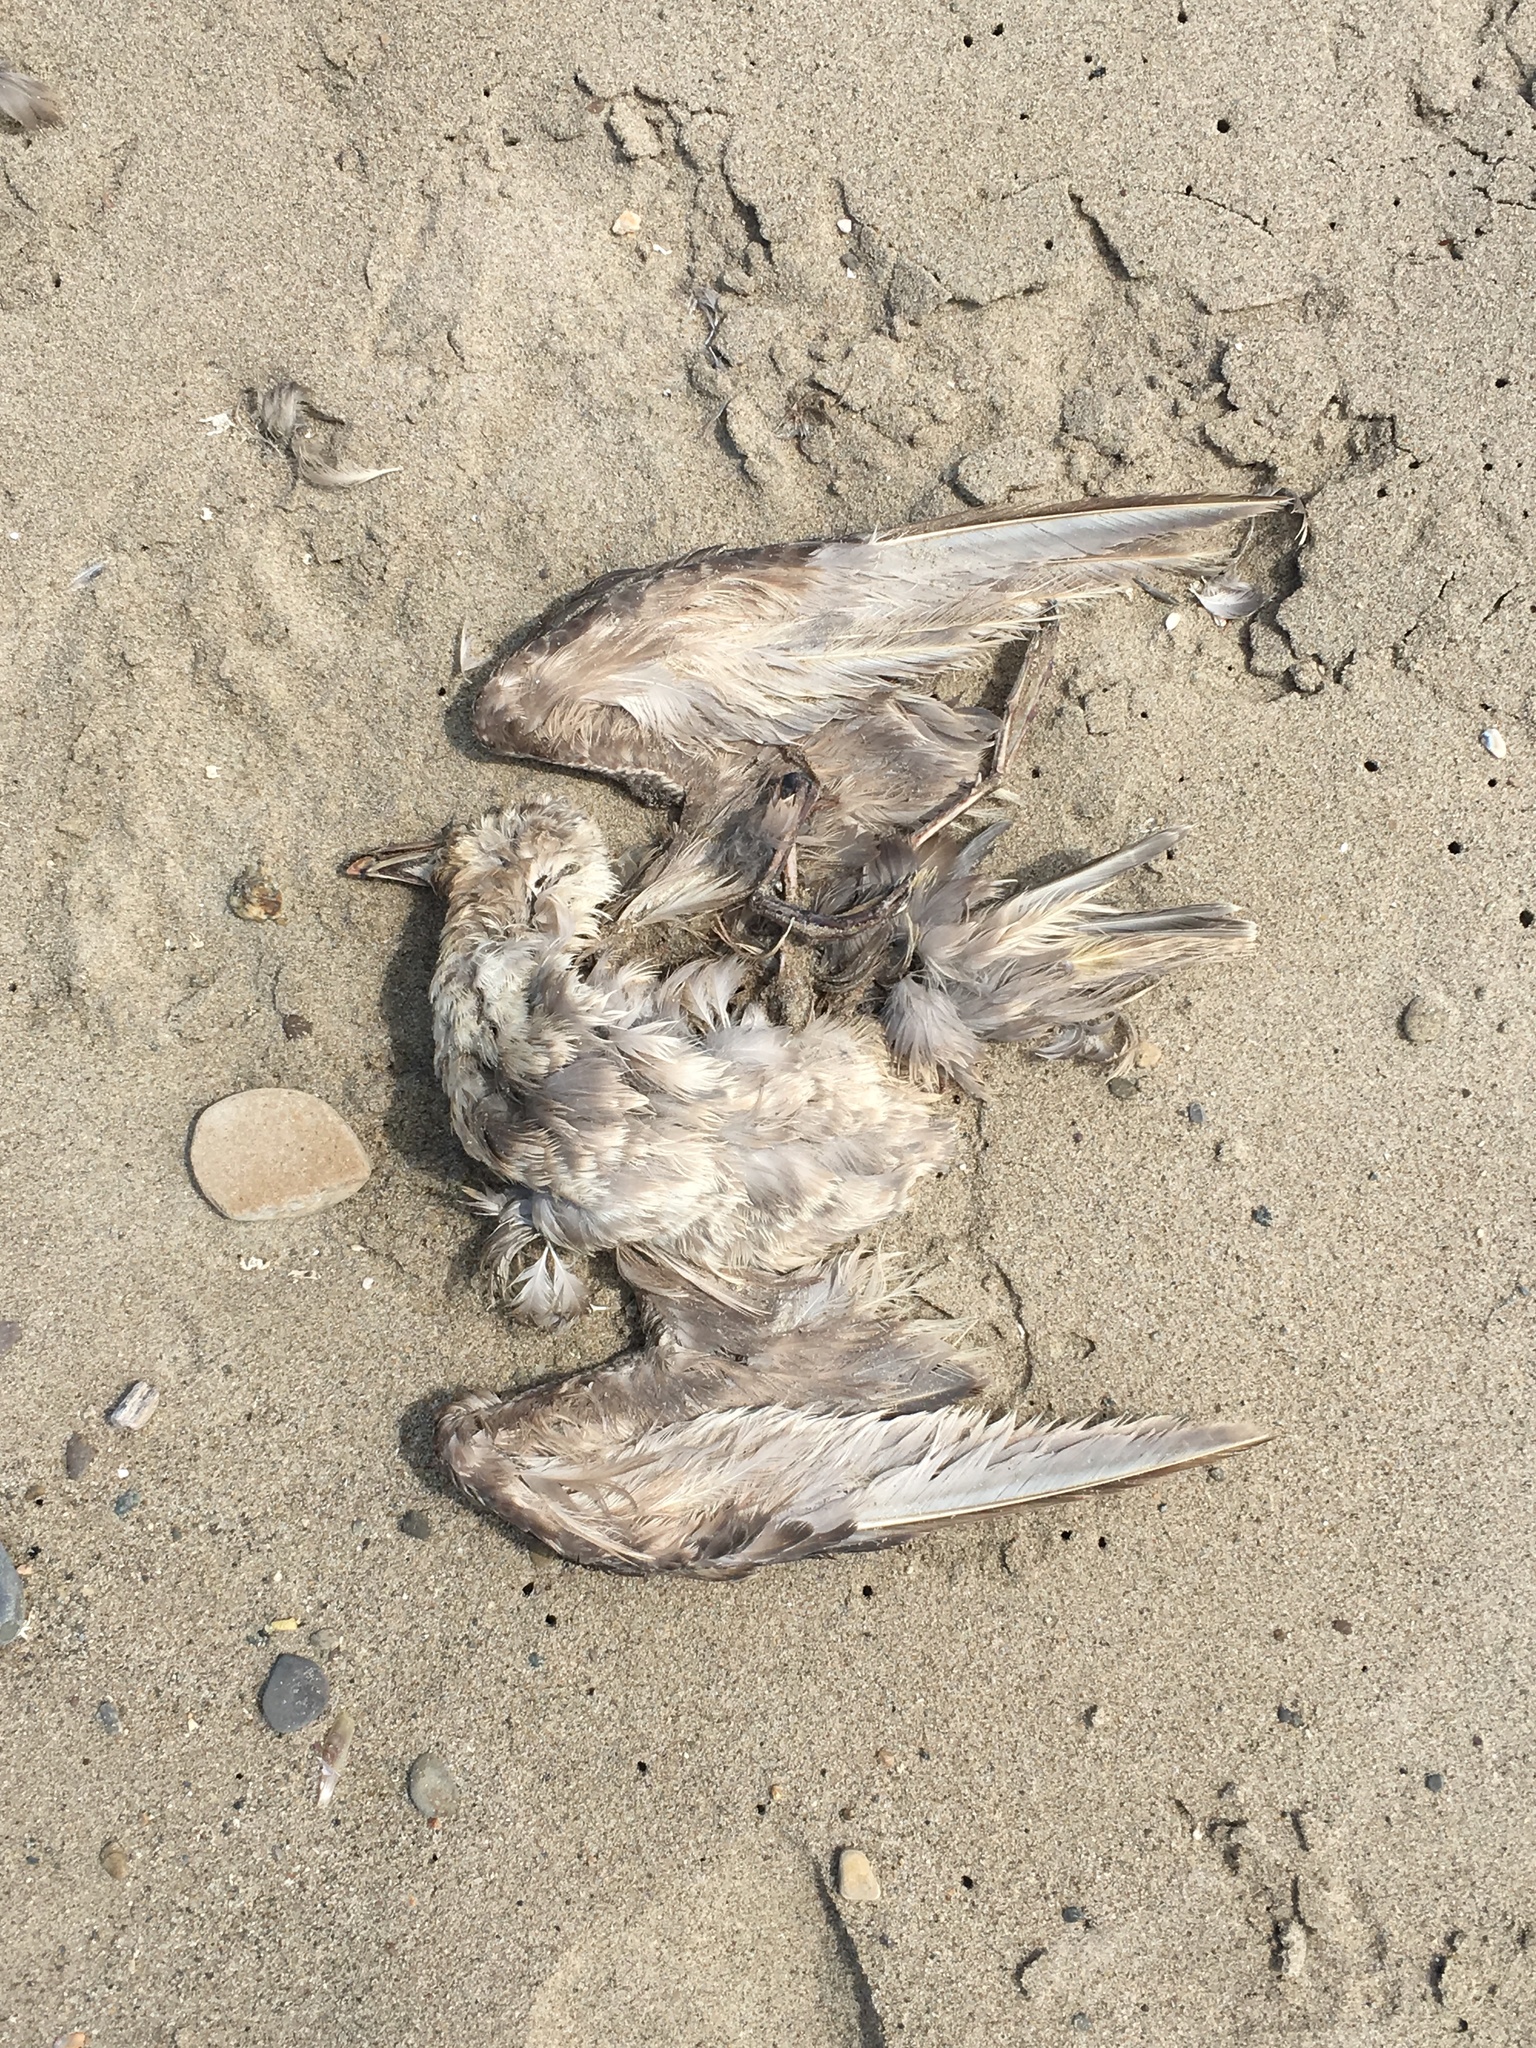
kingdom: Animalia
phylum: Chordata
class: Aves
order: Procellariiformes
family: Procellariidae
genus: Fulmarus
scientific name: Fulmarus glacialis
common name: Northern fulmar
